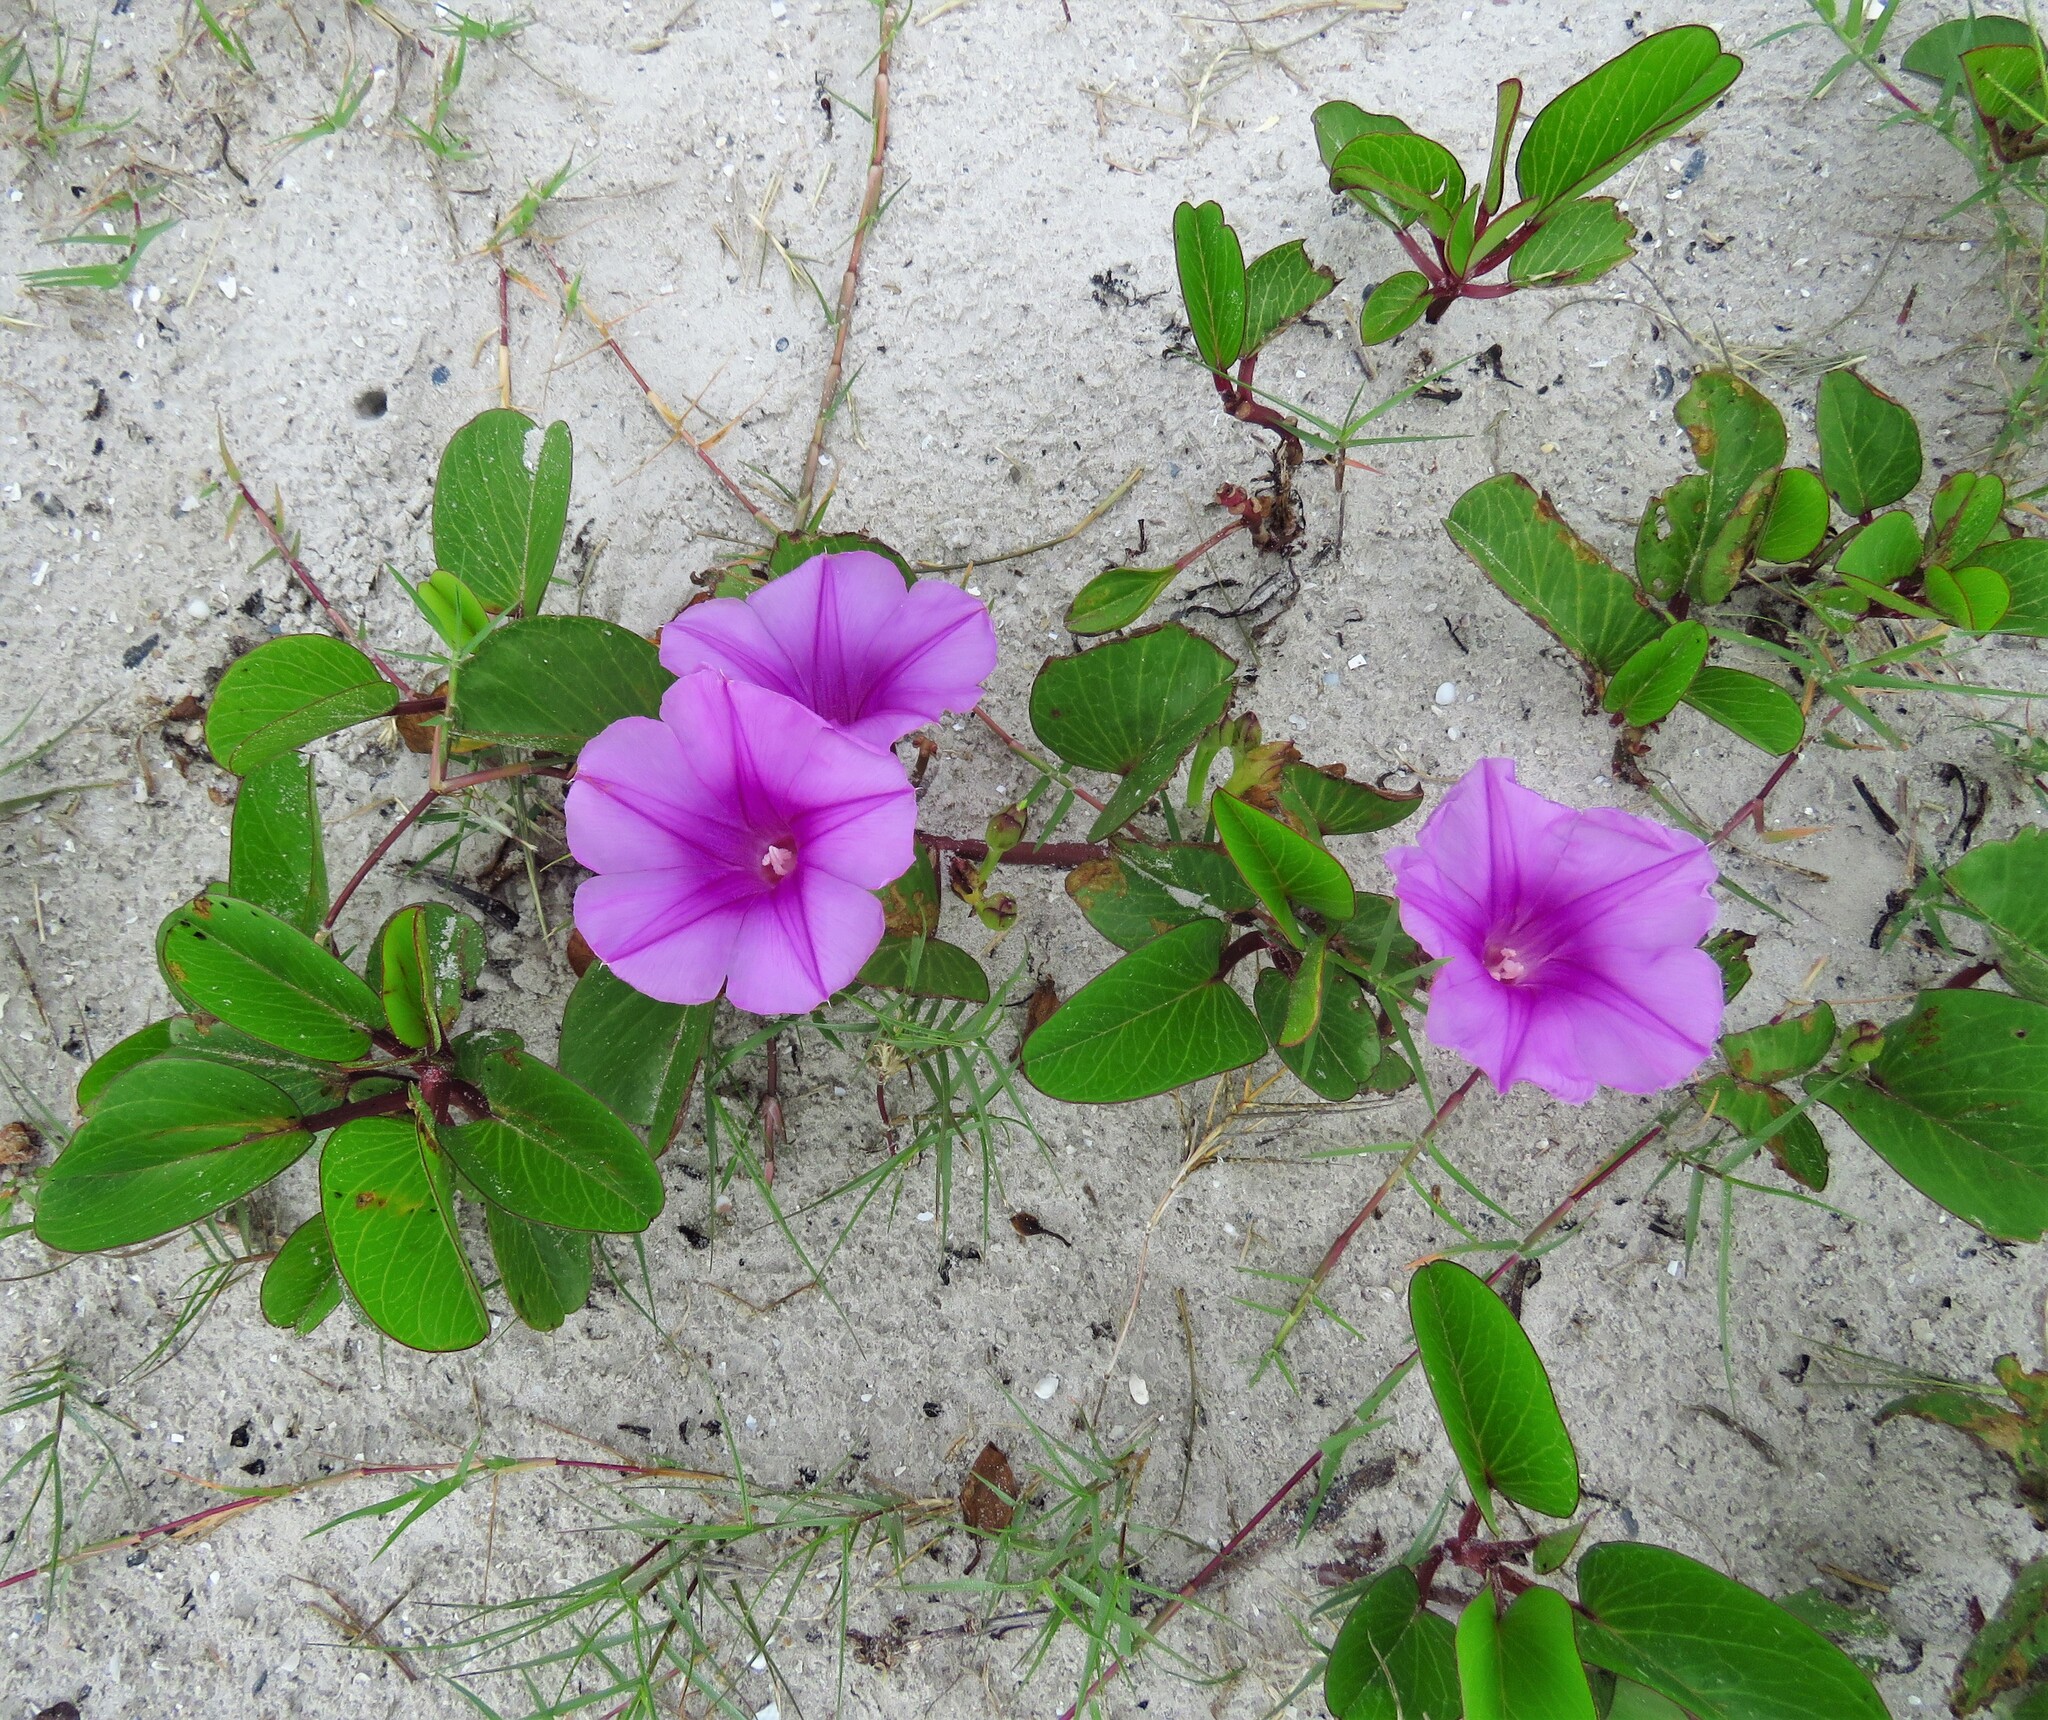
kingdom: Plantae
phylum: Tracheophyta
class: Magnoliopsida
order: Solanales
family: Convolvulaceae
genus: Ipomoea
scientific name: Ipomoea pes-caprae
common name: Beach morning glory
